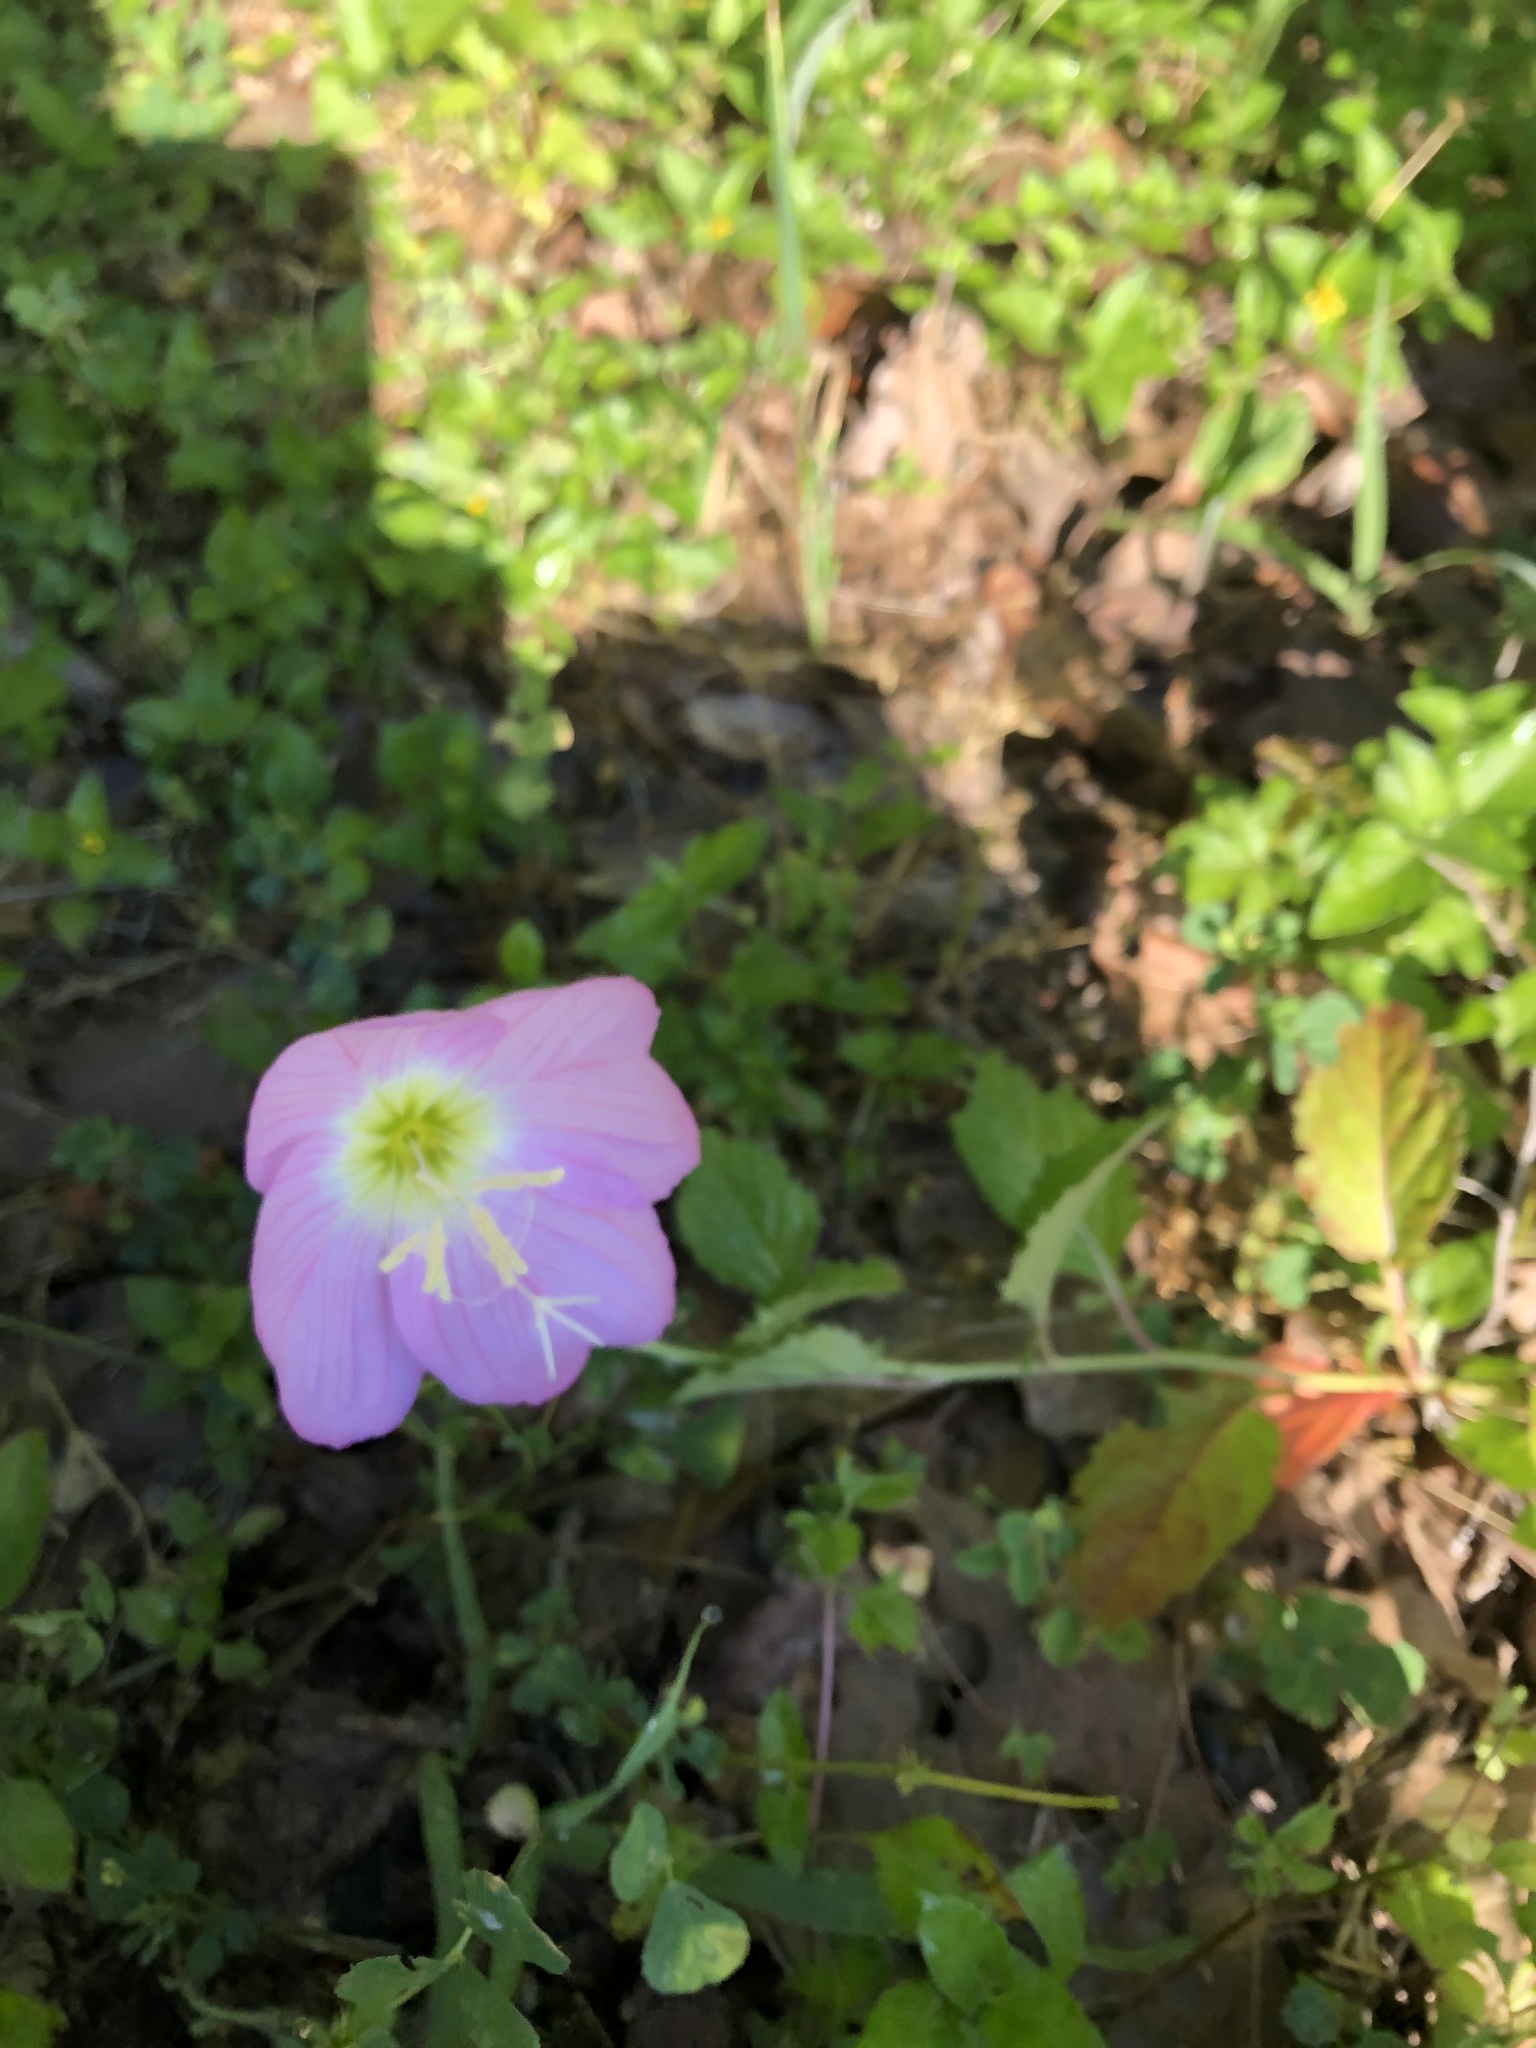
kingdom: Plantae
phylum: Tracheophyta
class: Magnoliopsida
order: Myrtales
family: Onagraceae
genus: Oenothera
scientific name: Oenothera speciosa
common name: White evening-primrose
